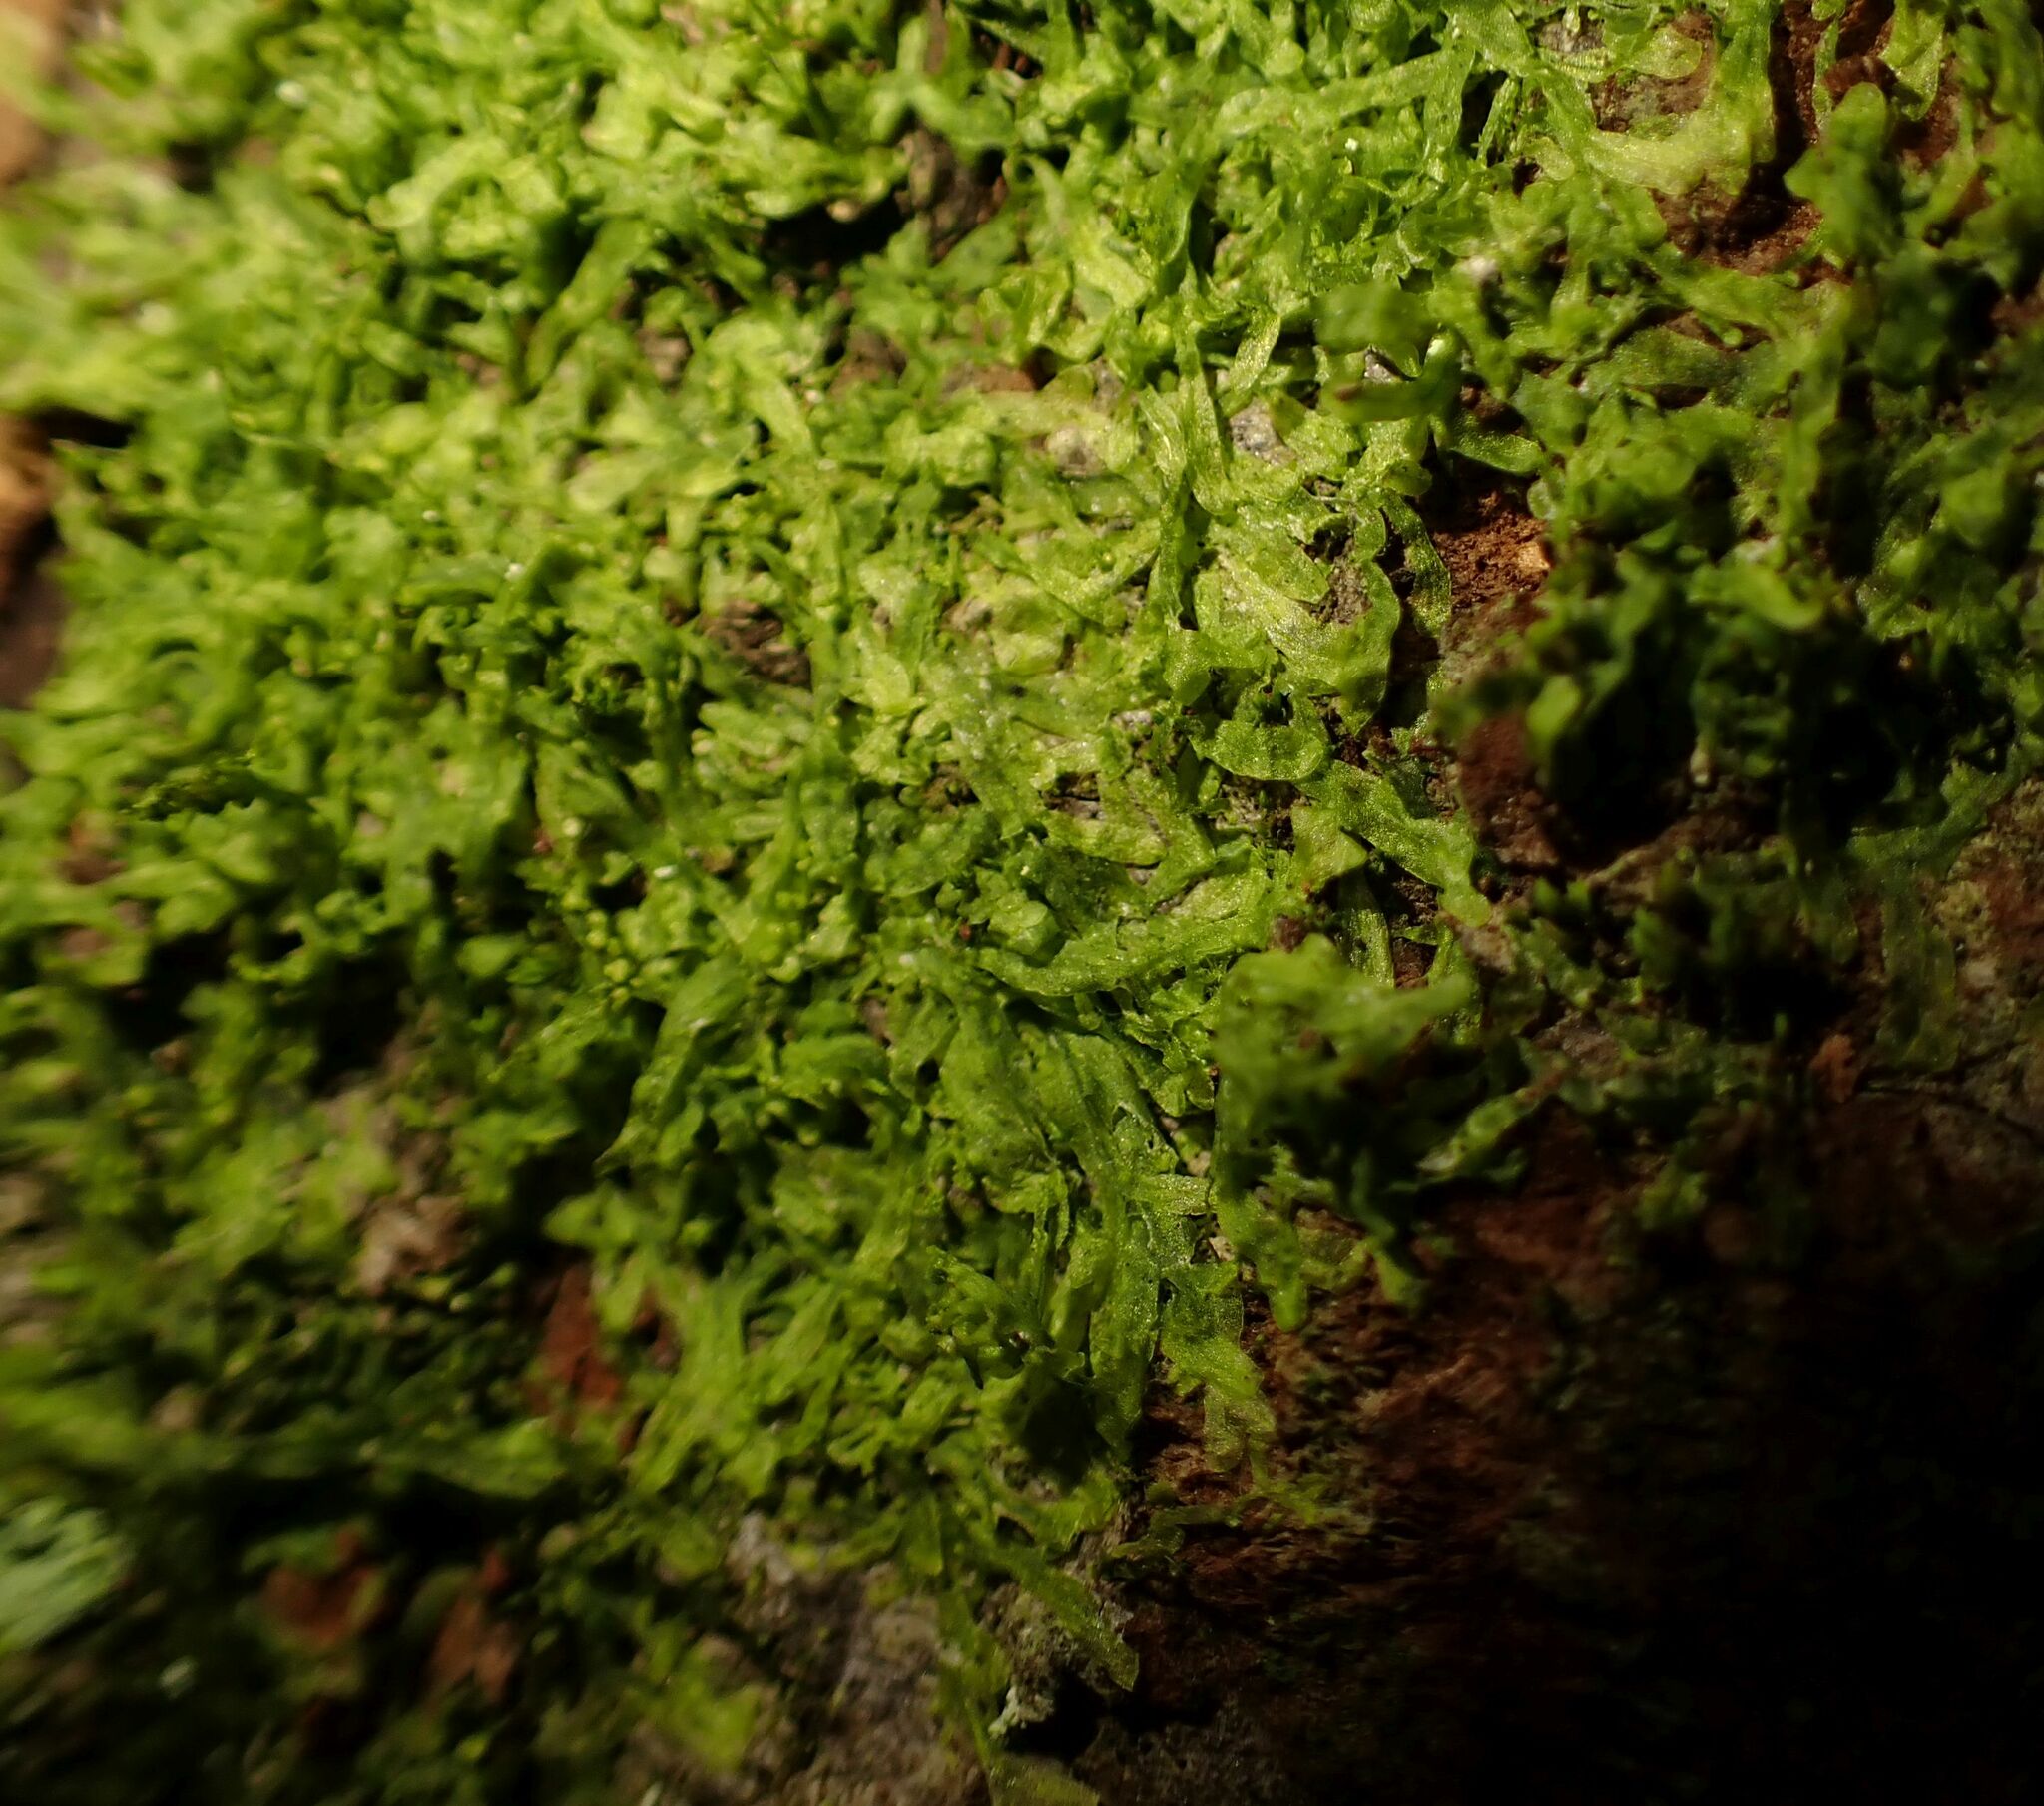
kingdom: Plantae
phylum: Marchantiophyta
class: Jungermanniopsida
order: Metzgeriales
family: Metzgeriaceae
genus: Metzgeria
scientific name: Metzgeria furcata
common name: Forked veilwort
